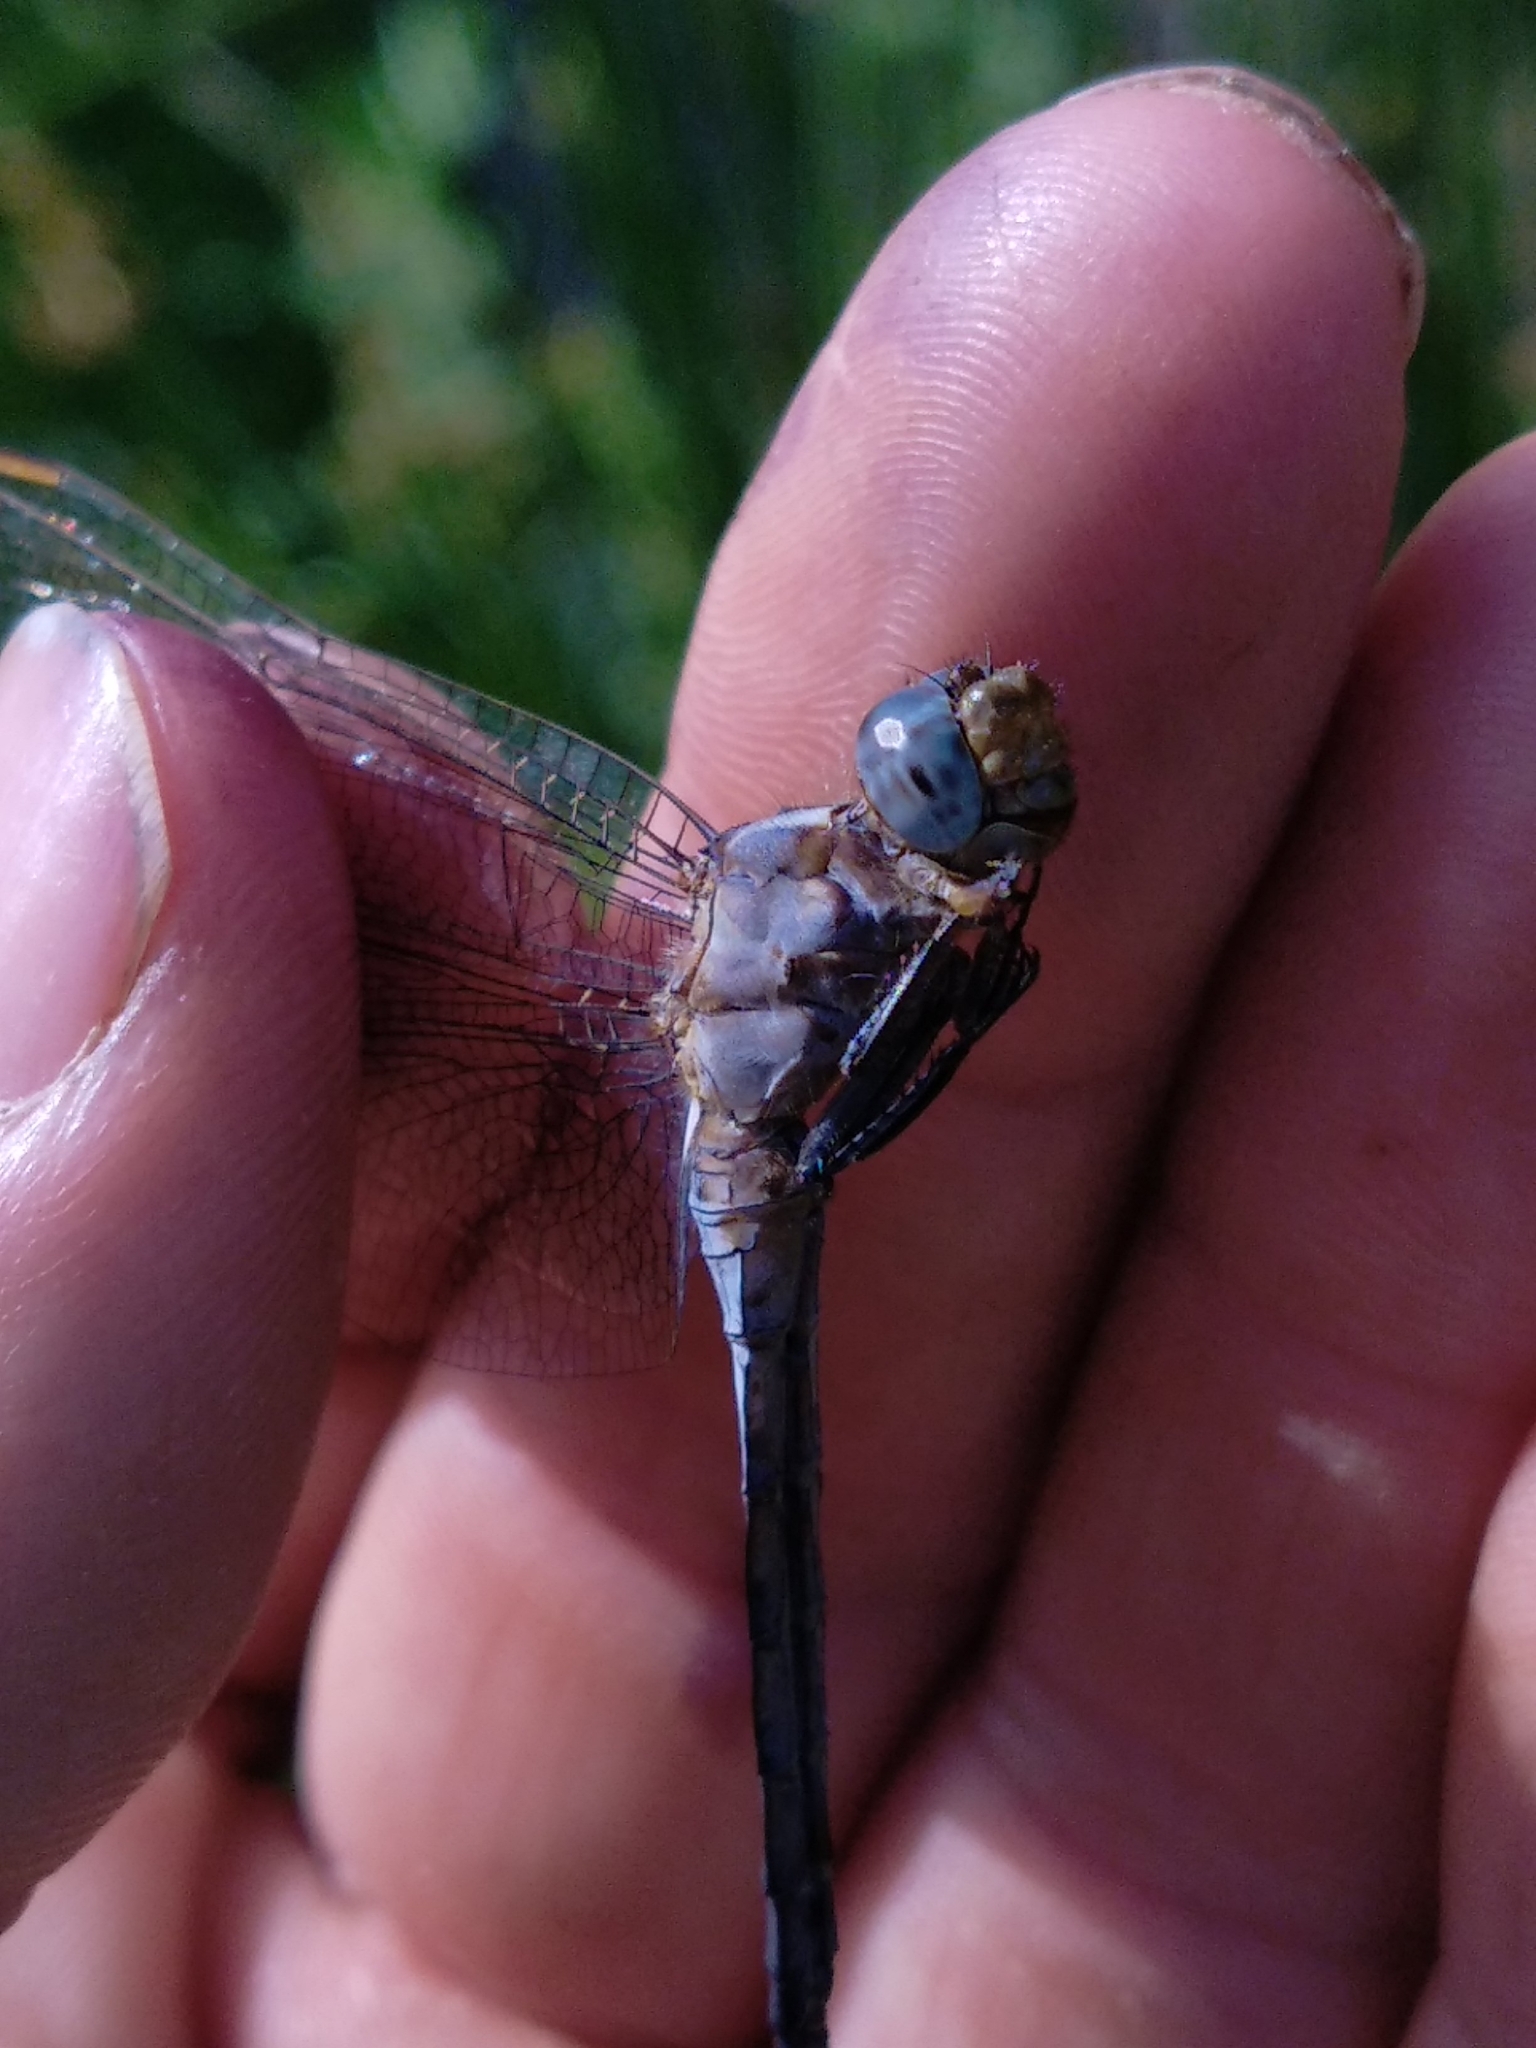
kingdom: Animalia
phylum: Arthropoda
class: Insecta
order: Odonata
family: Libellulidae
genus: Orthetrum
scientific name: Orthetrum coerulescens
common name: Keeled skimmer
